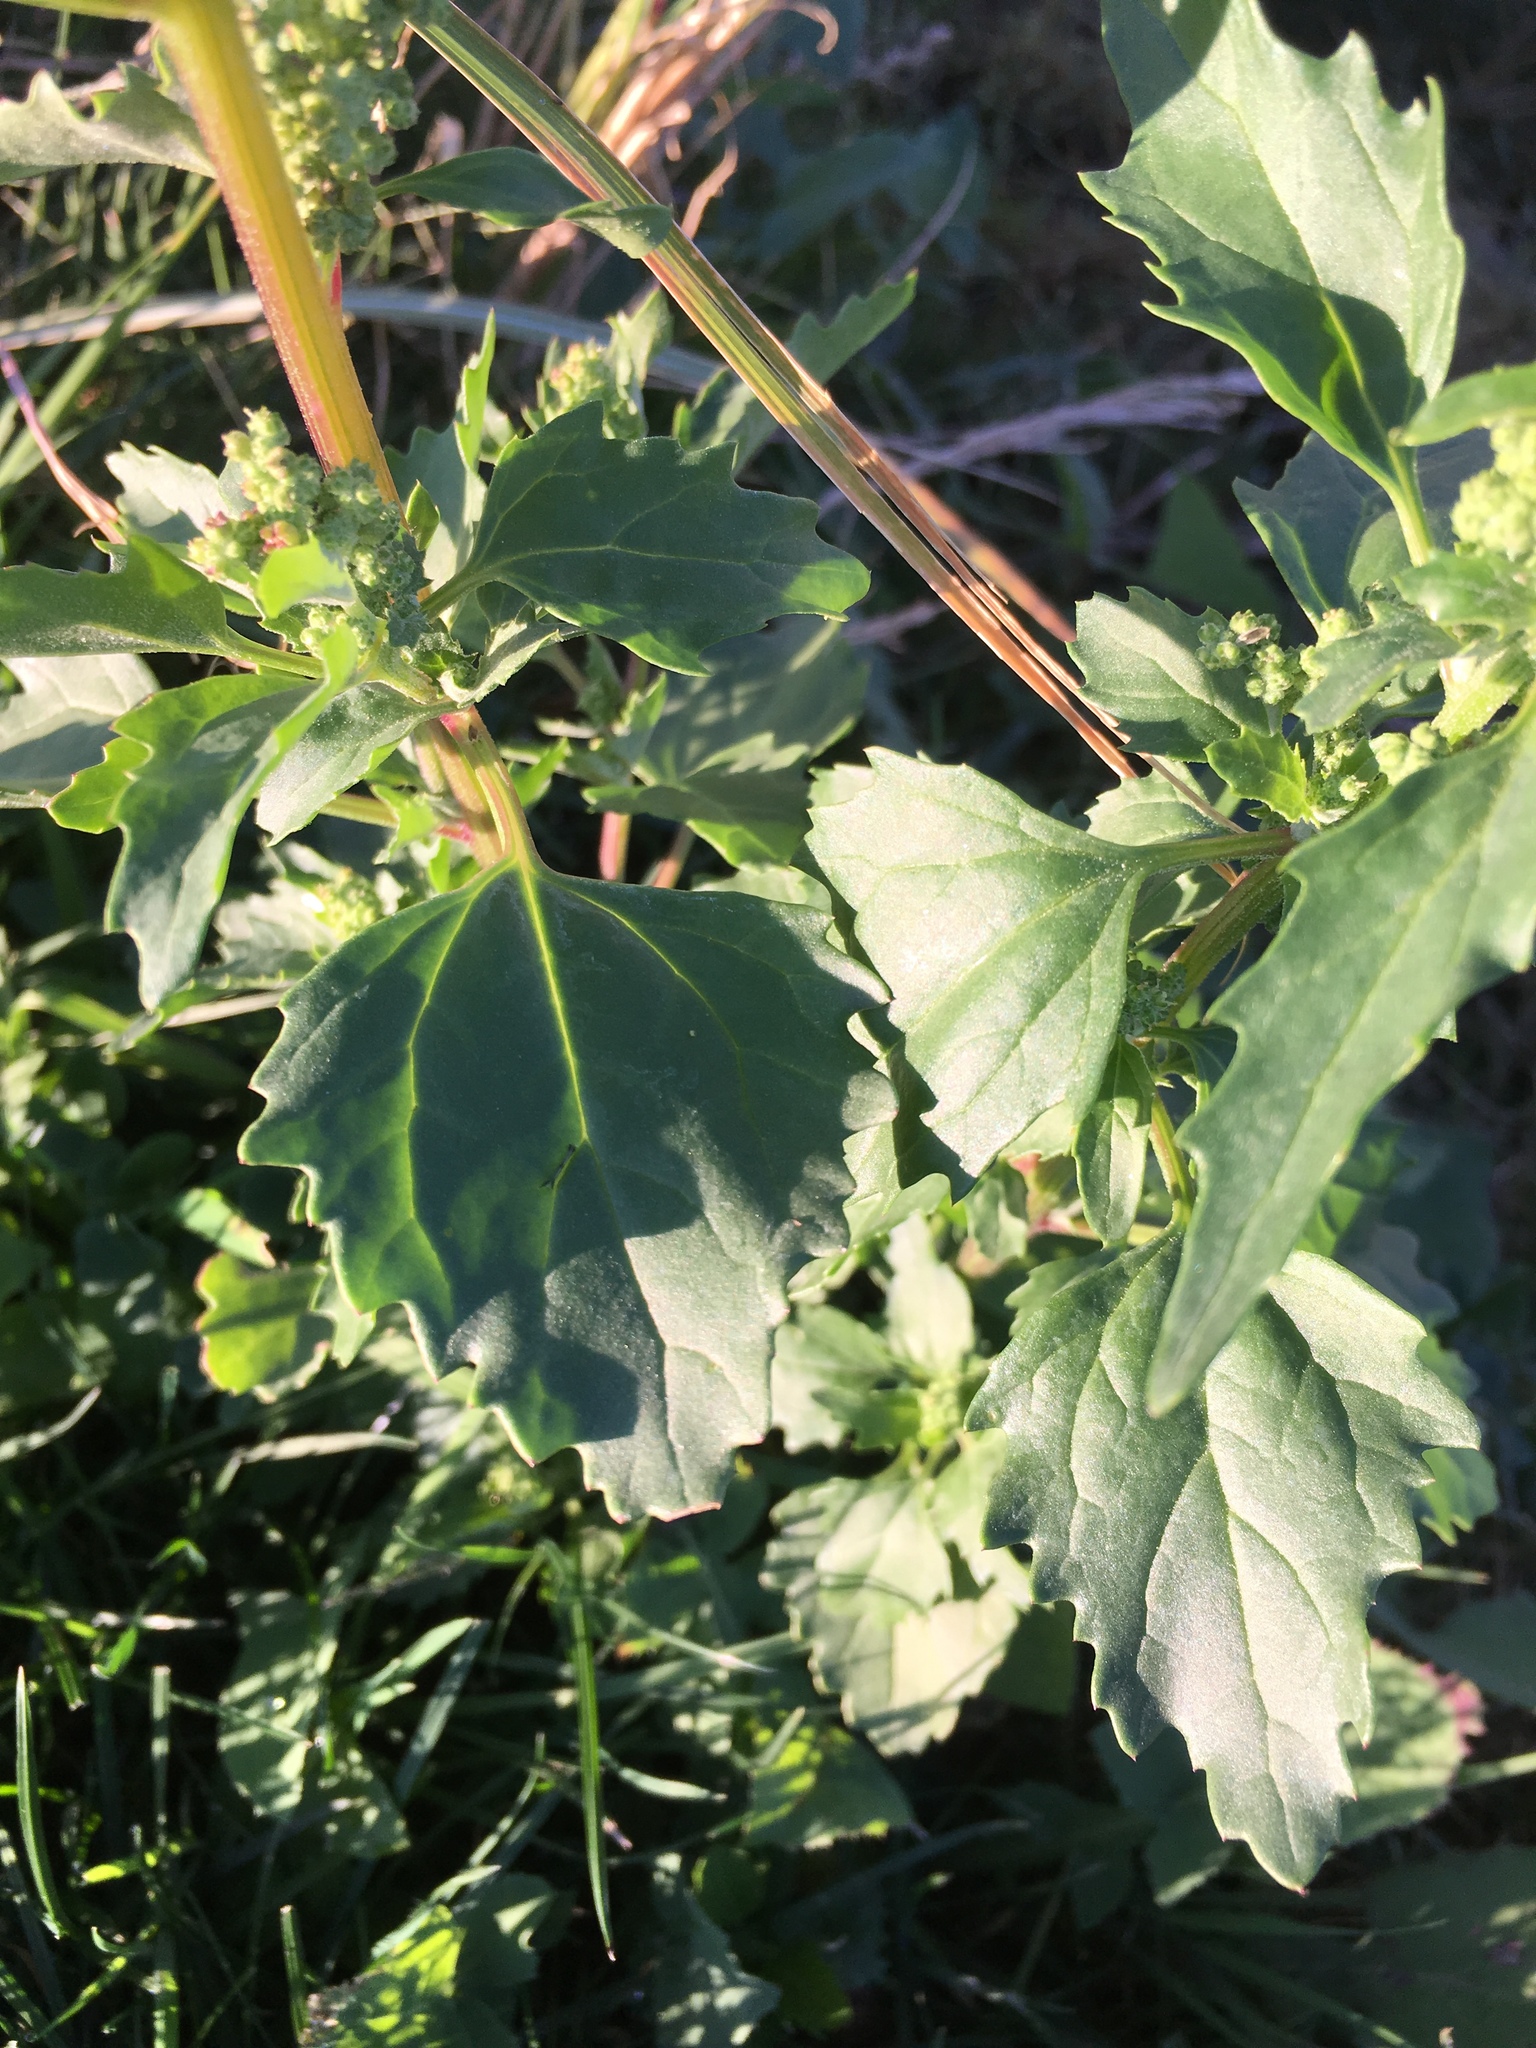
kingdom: Plantae
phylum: Tracheophyta
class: Magnoliopsida
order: Caryophyllales
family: Amaranthaceae
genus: Chenopodiastrum
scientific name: Chenopodiastrum murale
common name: Sowbane
